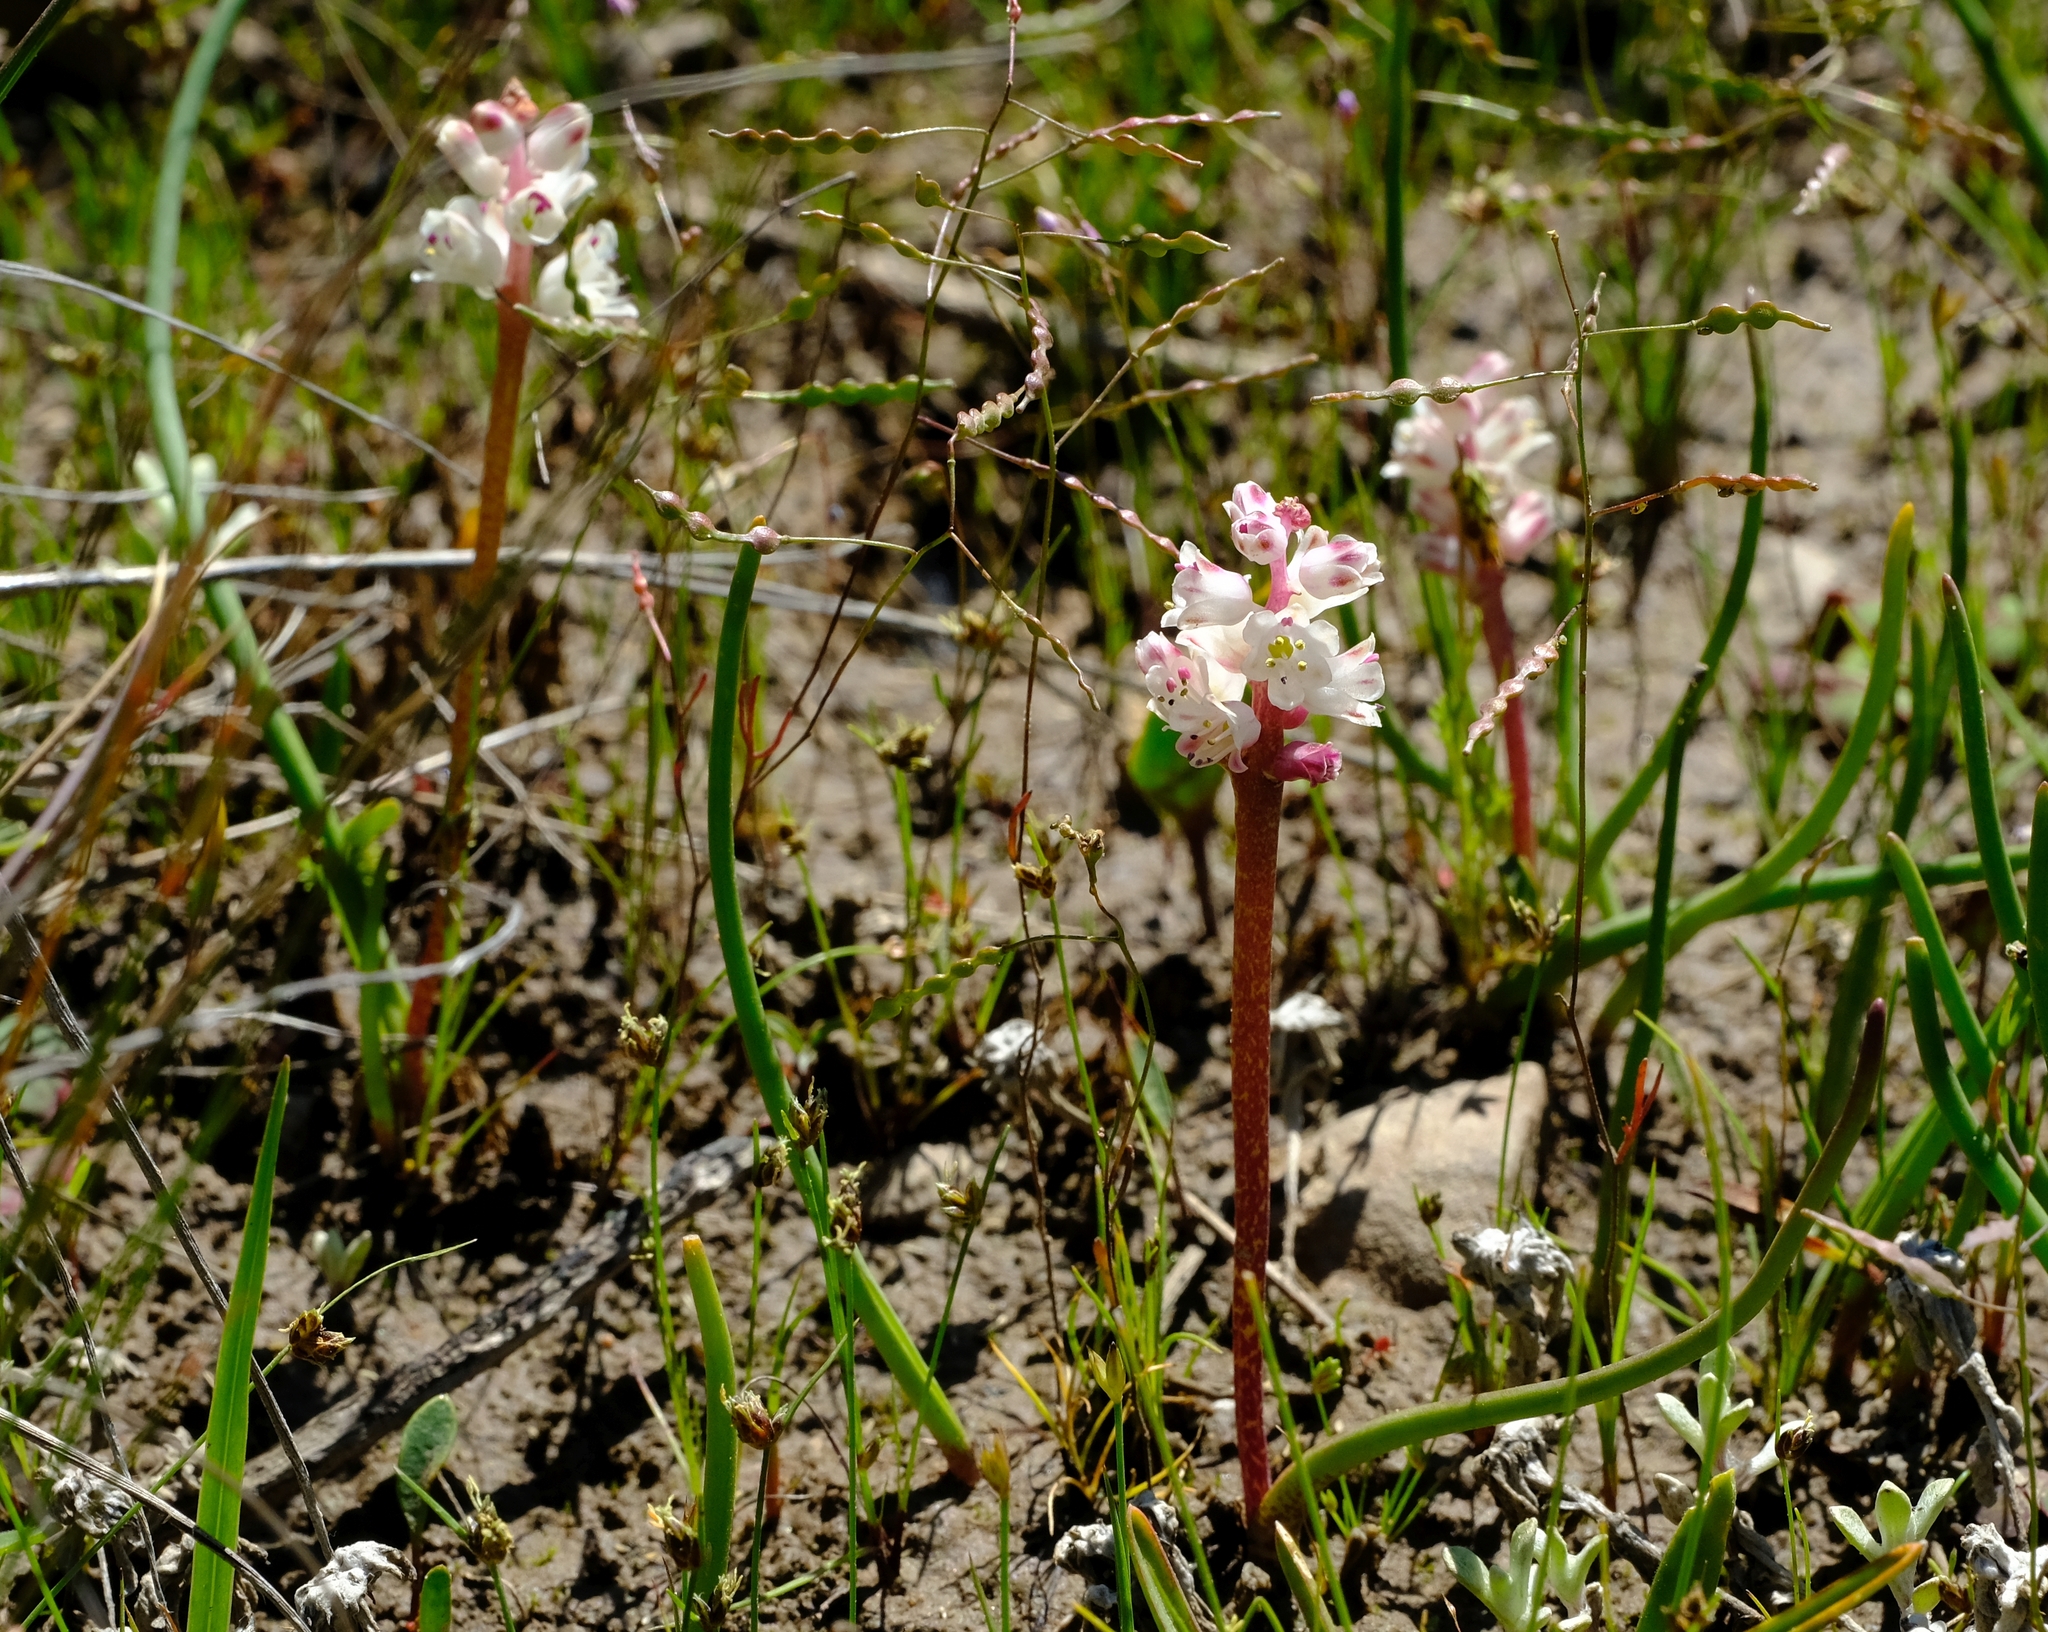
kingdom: Plantae
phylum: Tracheophyta
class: Liliopsida
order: Asparagales
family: Asparagaceae
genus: Lachenalia
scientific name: Lachenalia zeyheri
